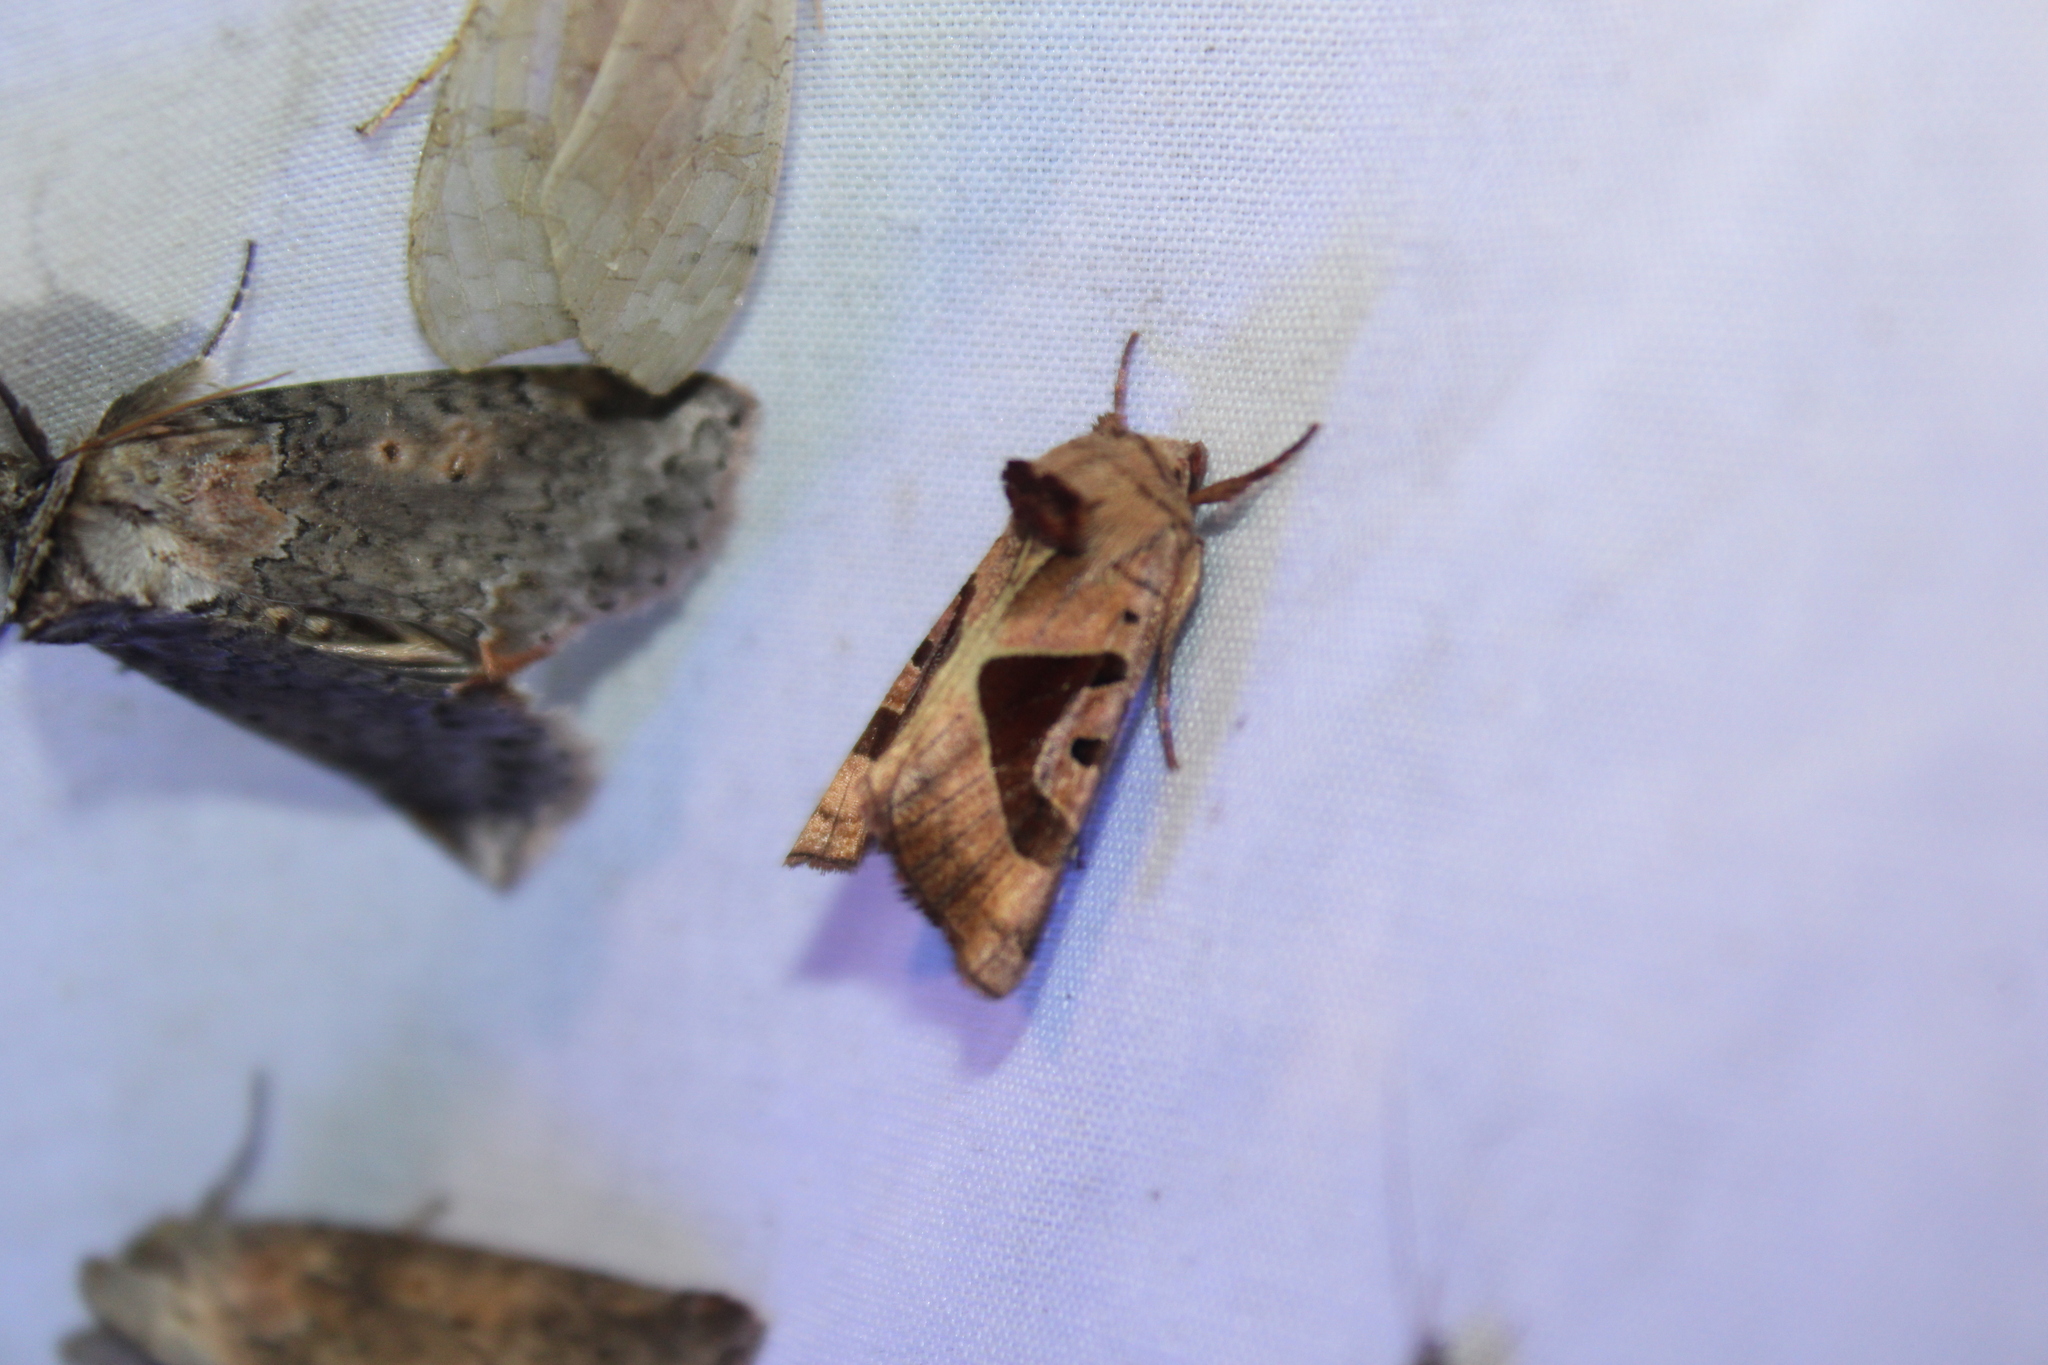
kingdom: Animalia
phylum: Arthropoda
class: Insecta
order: Lepidoptera
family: Noctuidae
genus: Conservula
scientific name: Conservula anodonta
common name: Sharp angle shades
